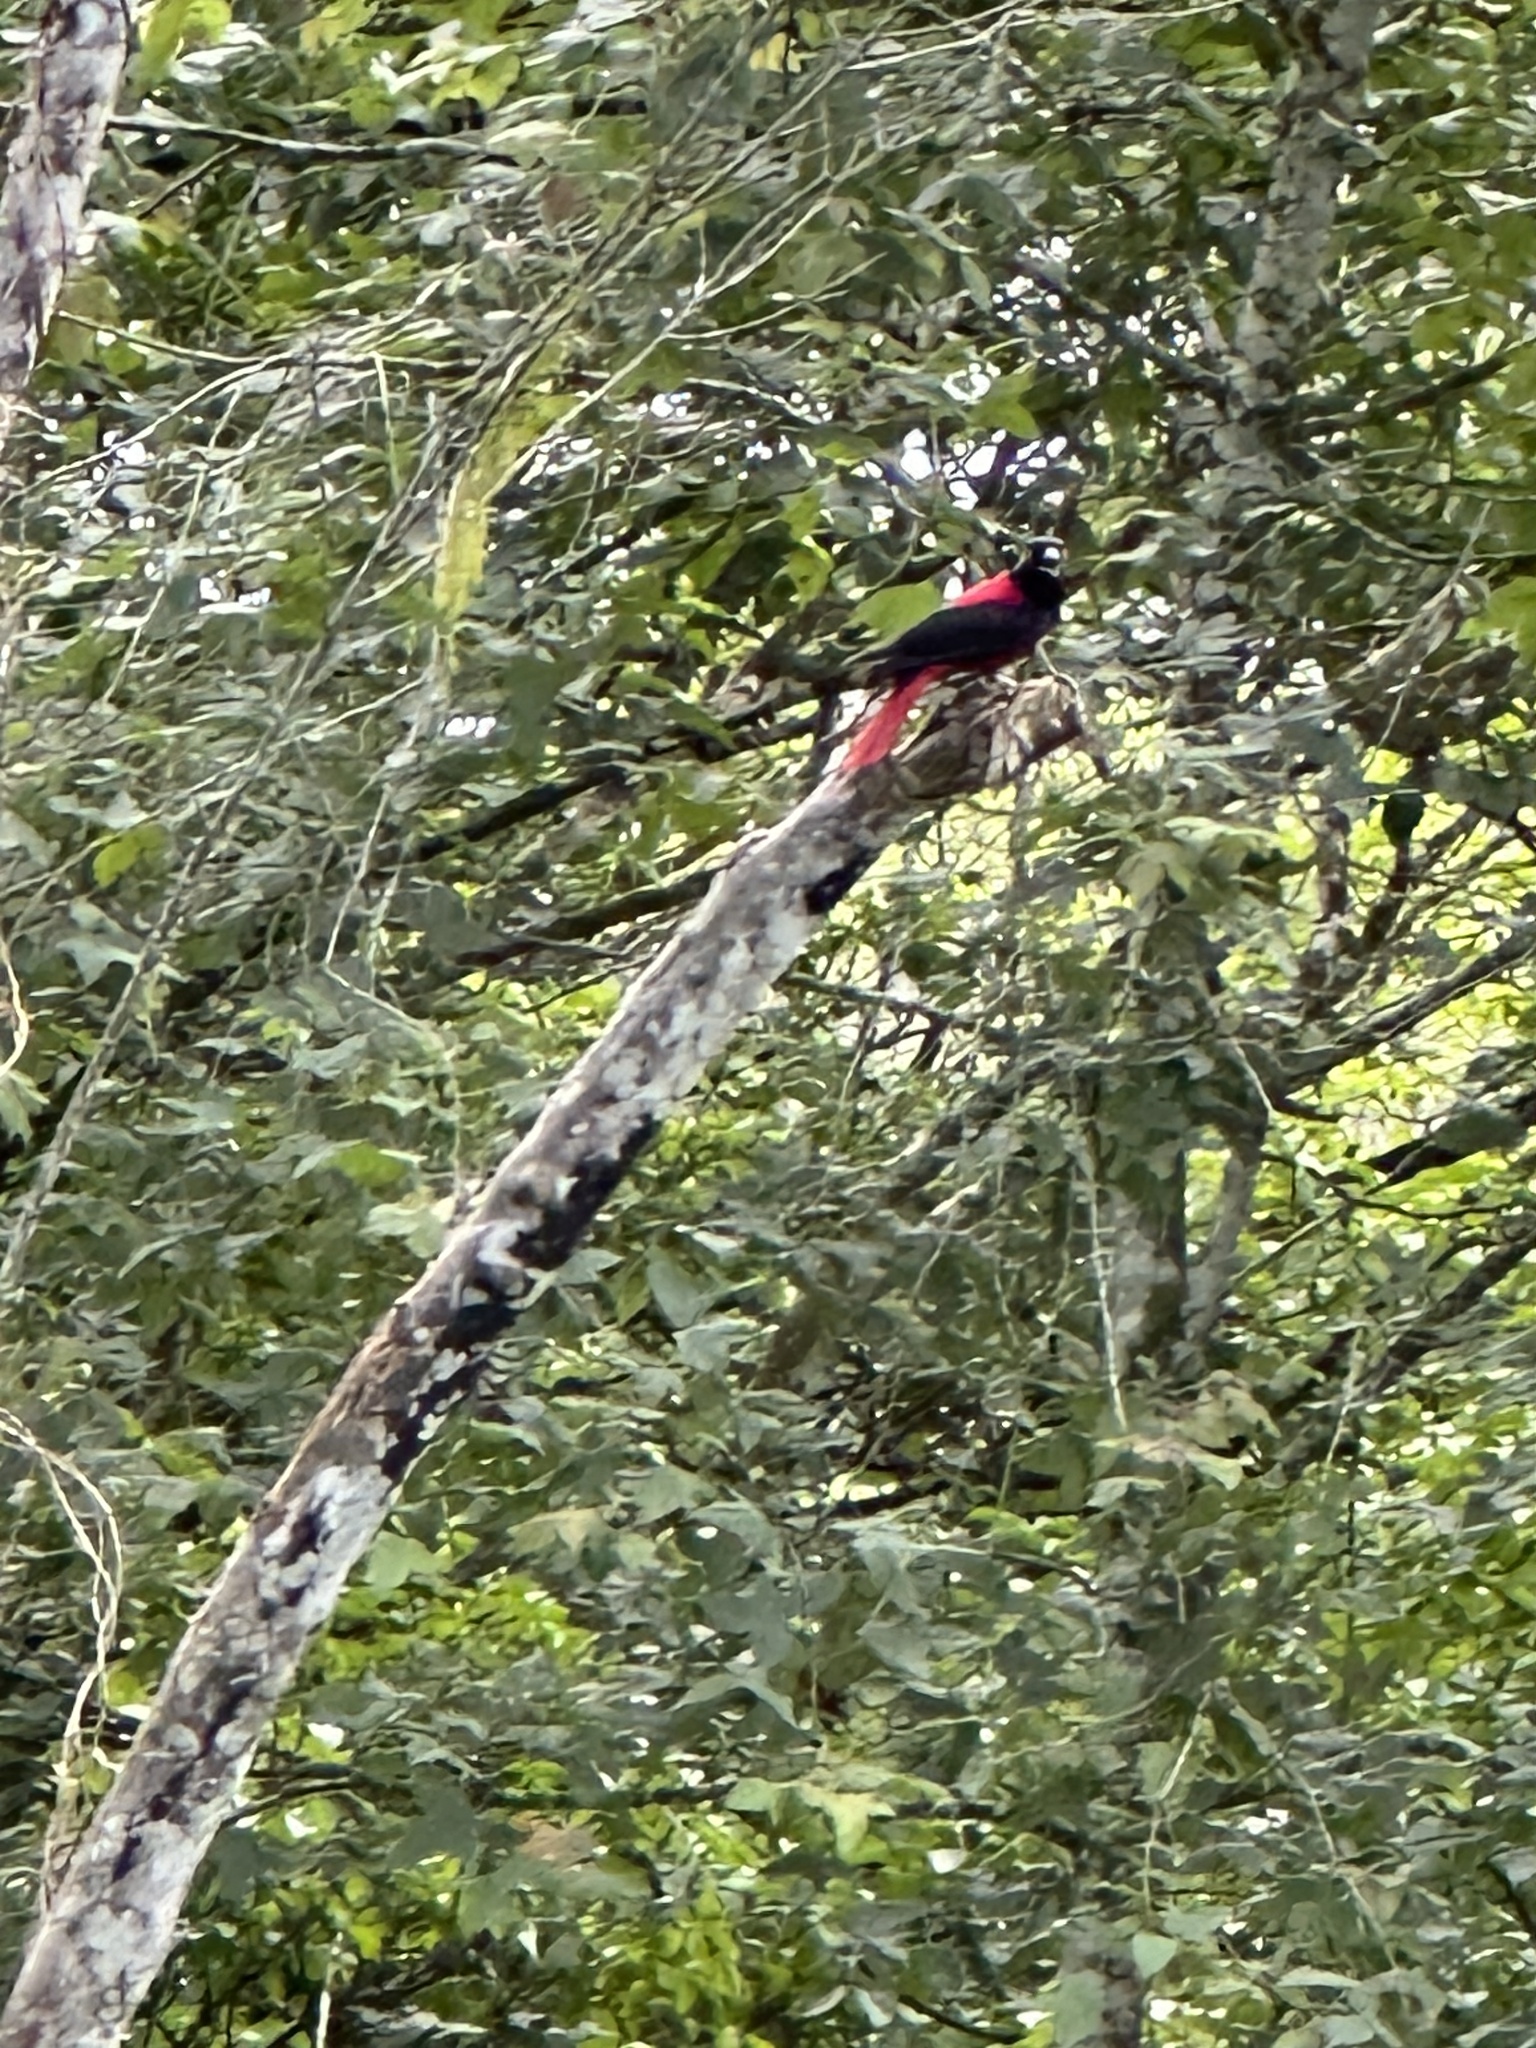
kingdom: Animalia
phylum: Chordata
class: Aves
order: Passeriformes
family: Oriolidae
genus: Oriolus
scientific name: Oriolus traillii
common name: Maroon oriole
